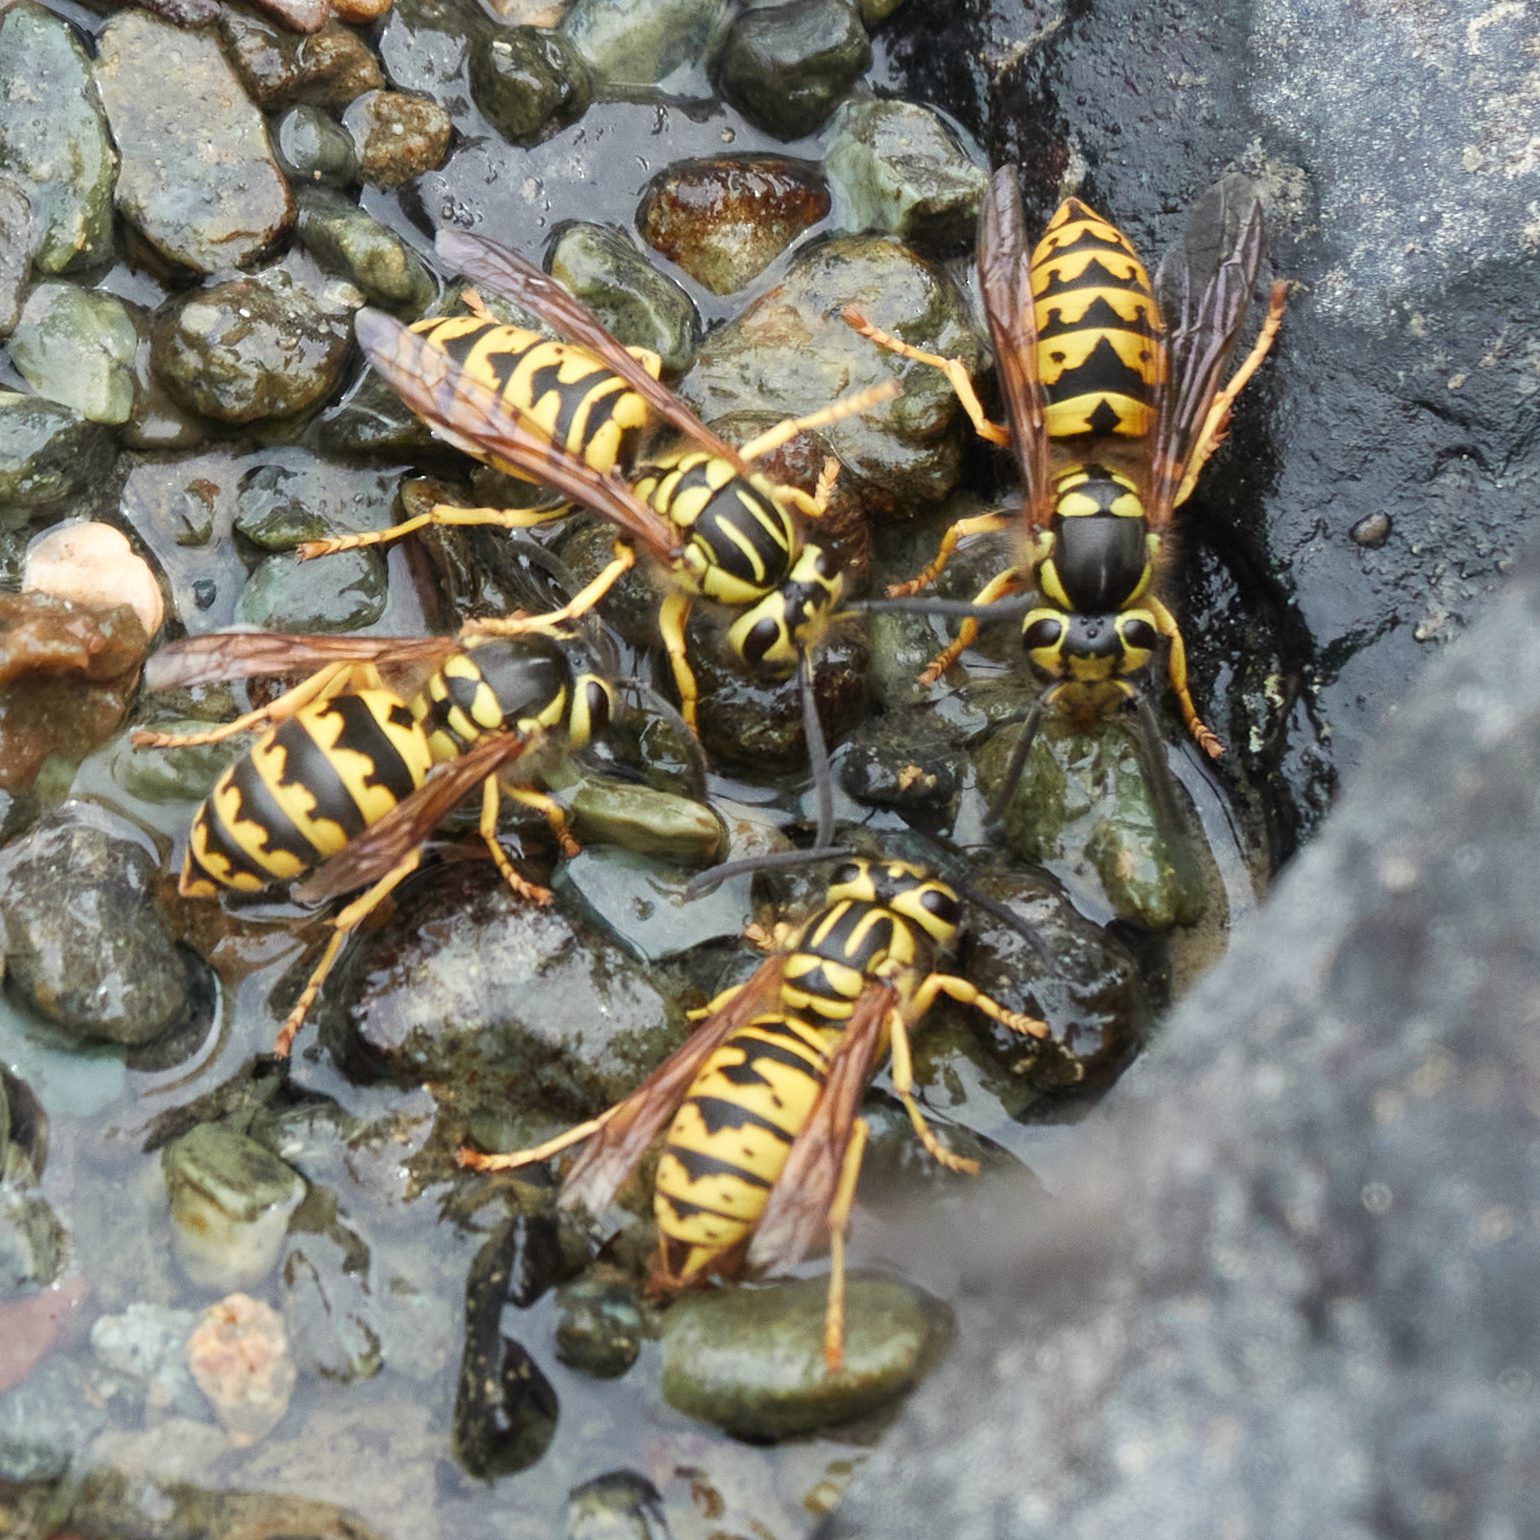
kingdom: Animalia
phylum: Arthropoda
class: Insecta
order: Hymenoptera
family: Vespidae
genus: Vespula
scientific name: Vespula sulphurea
